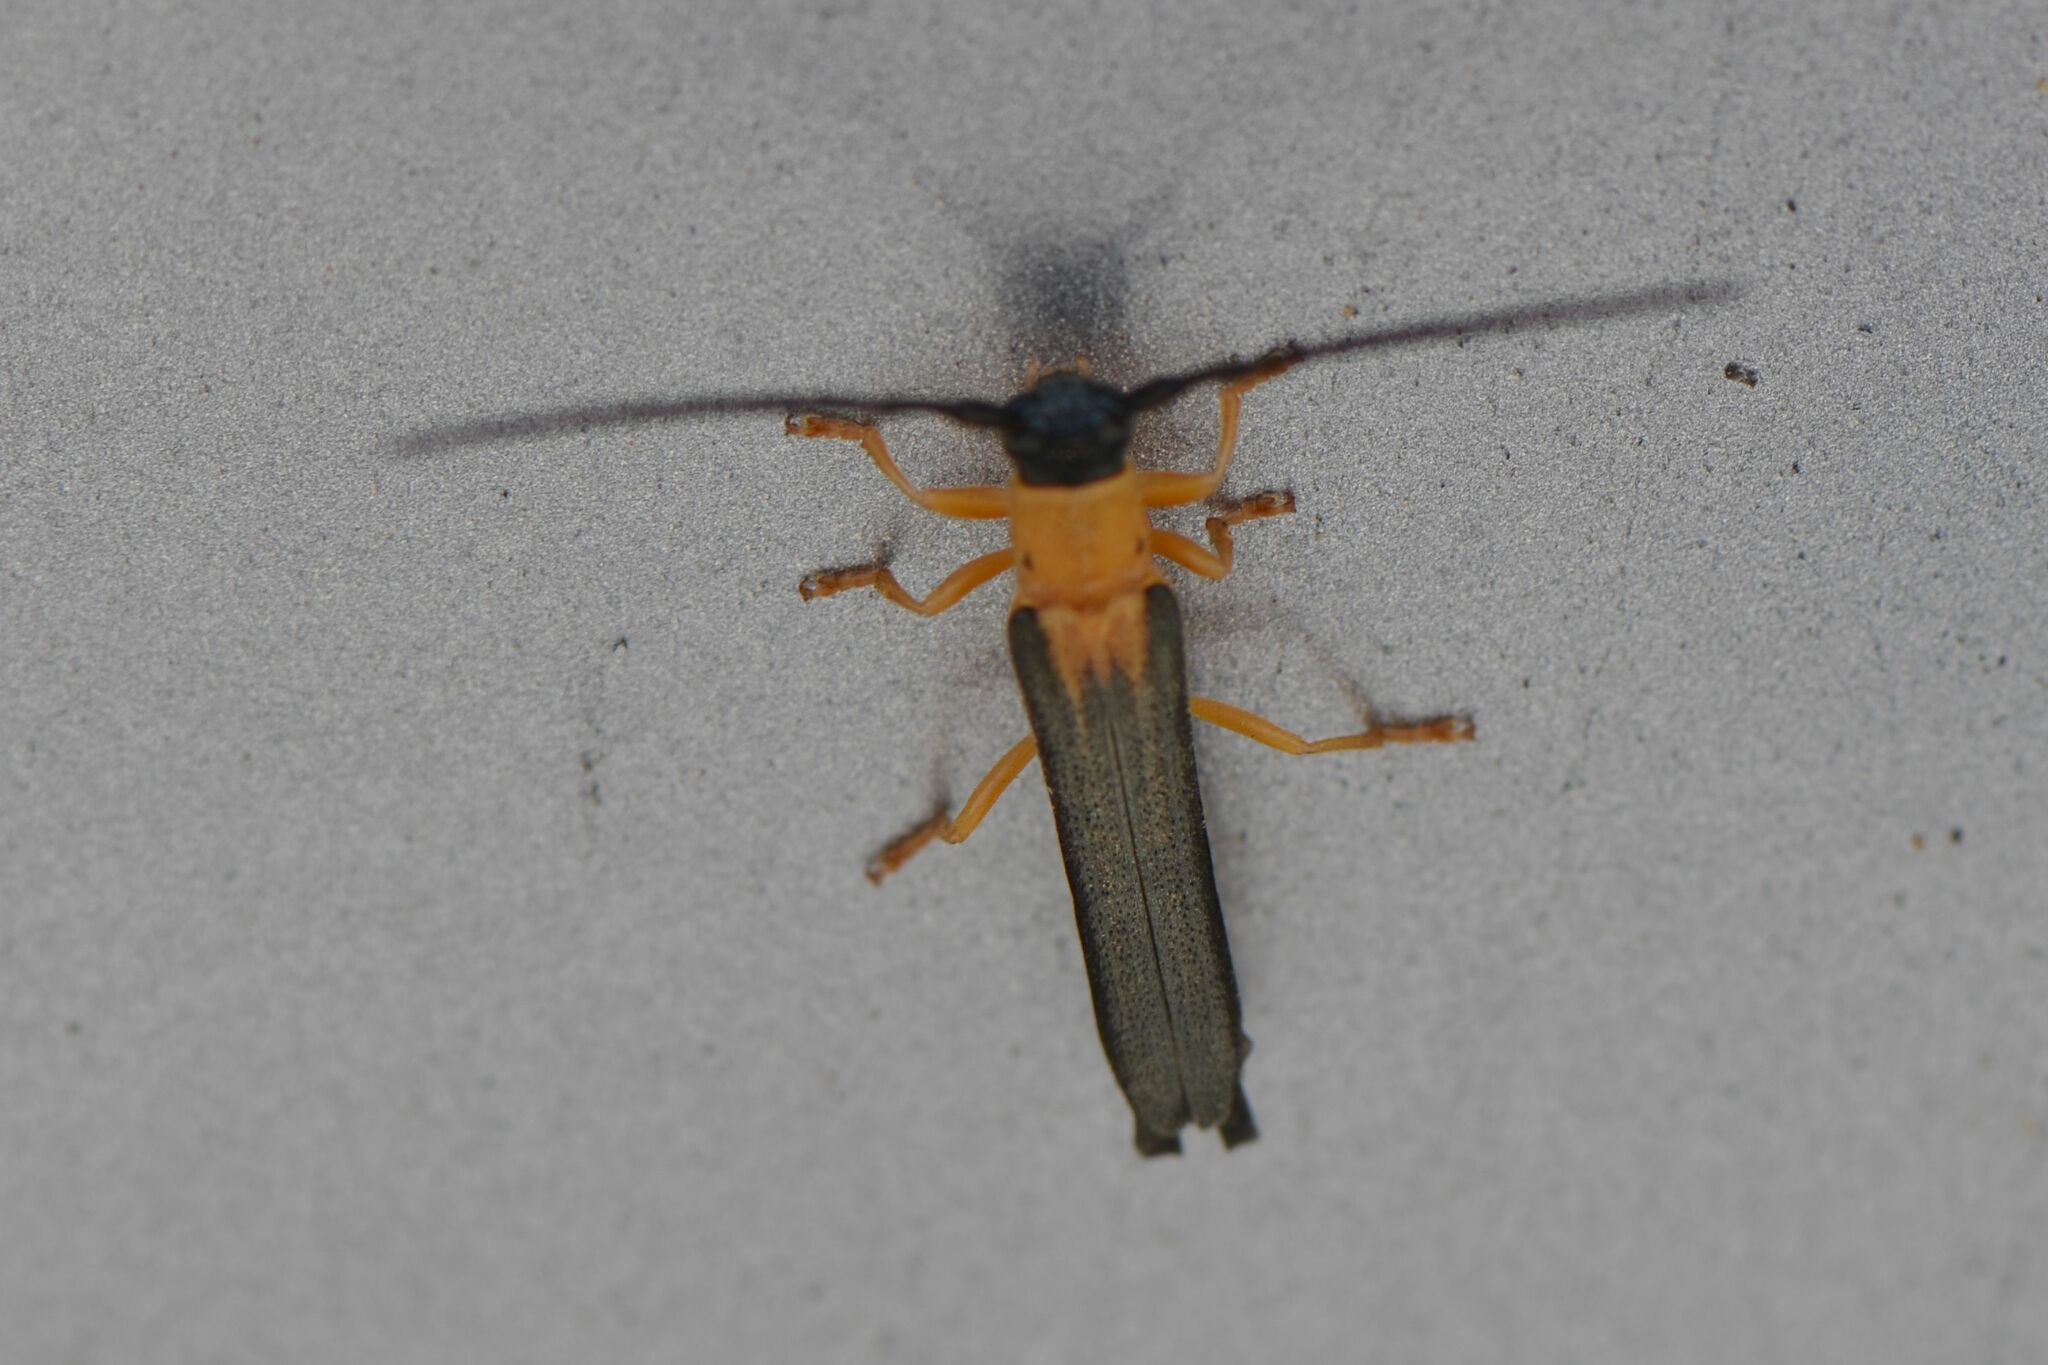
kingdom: Animalia
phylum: Arthropoda
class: Insecta
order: Coleoptera
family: Cerambycidae
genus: Oberea
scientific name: Oberea pupillata
